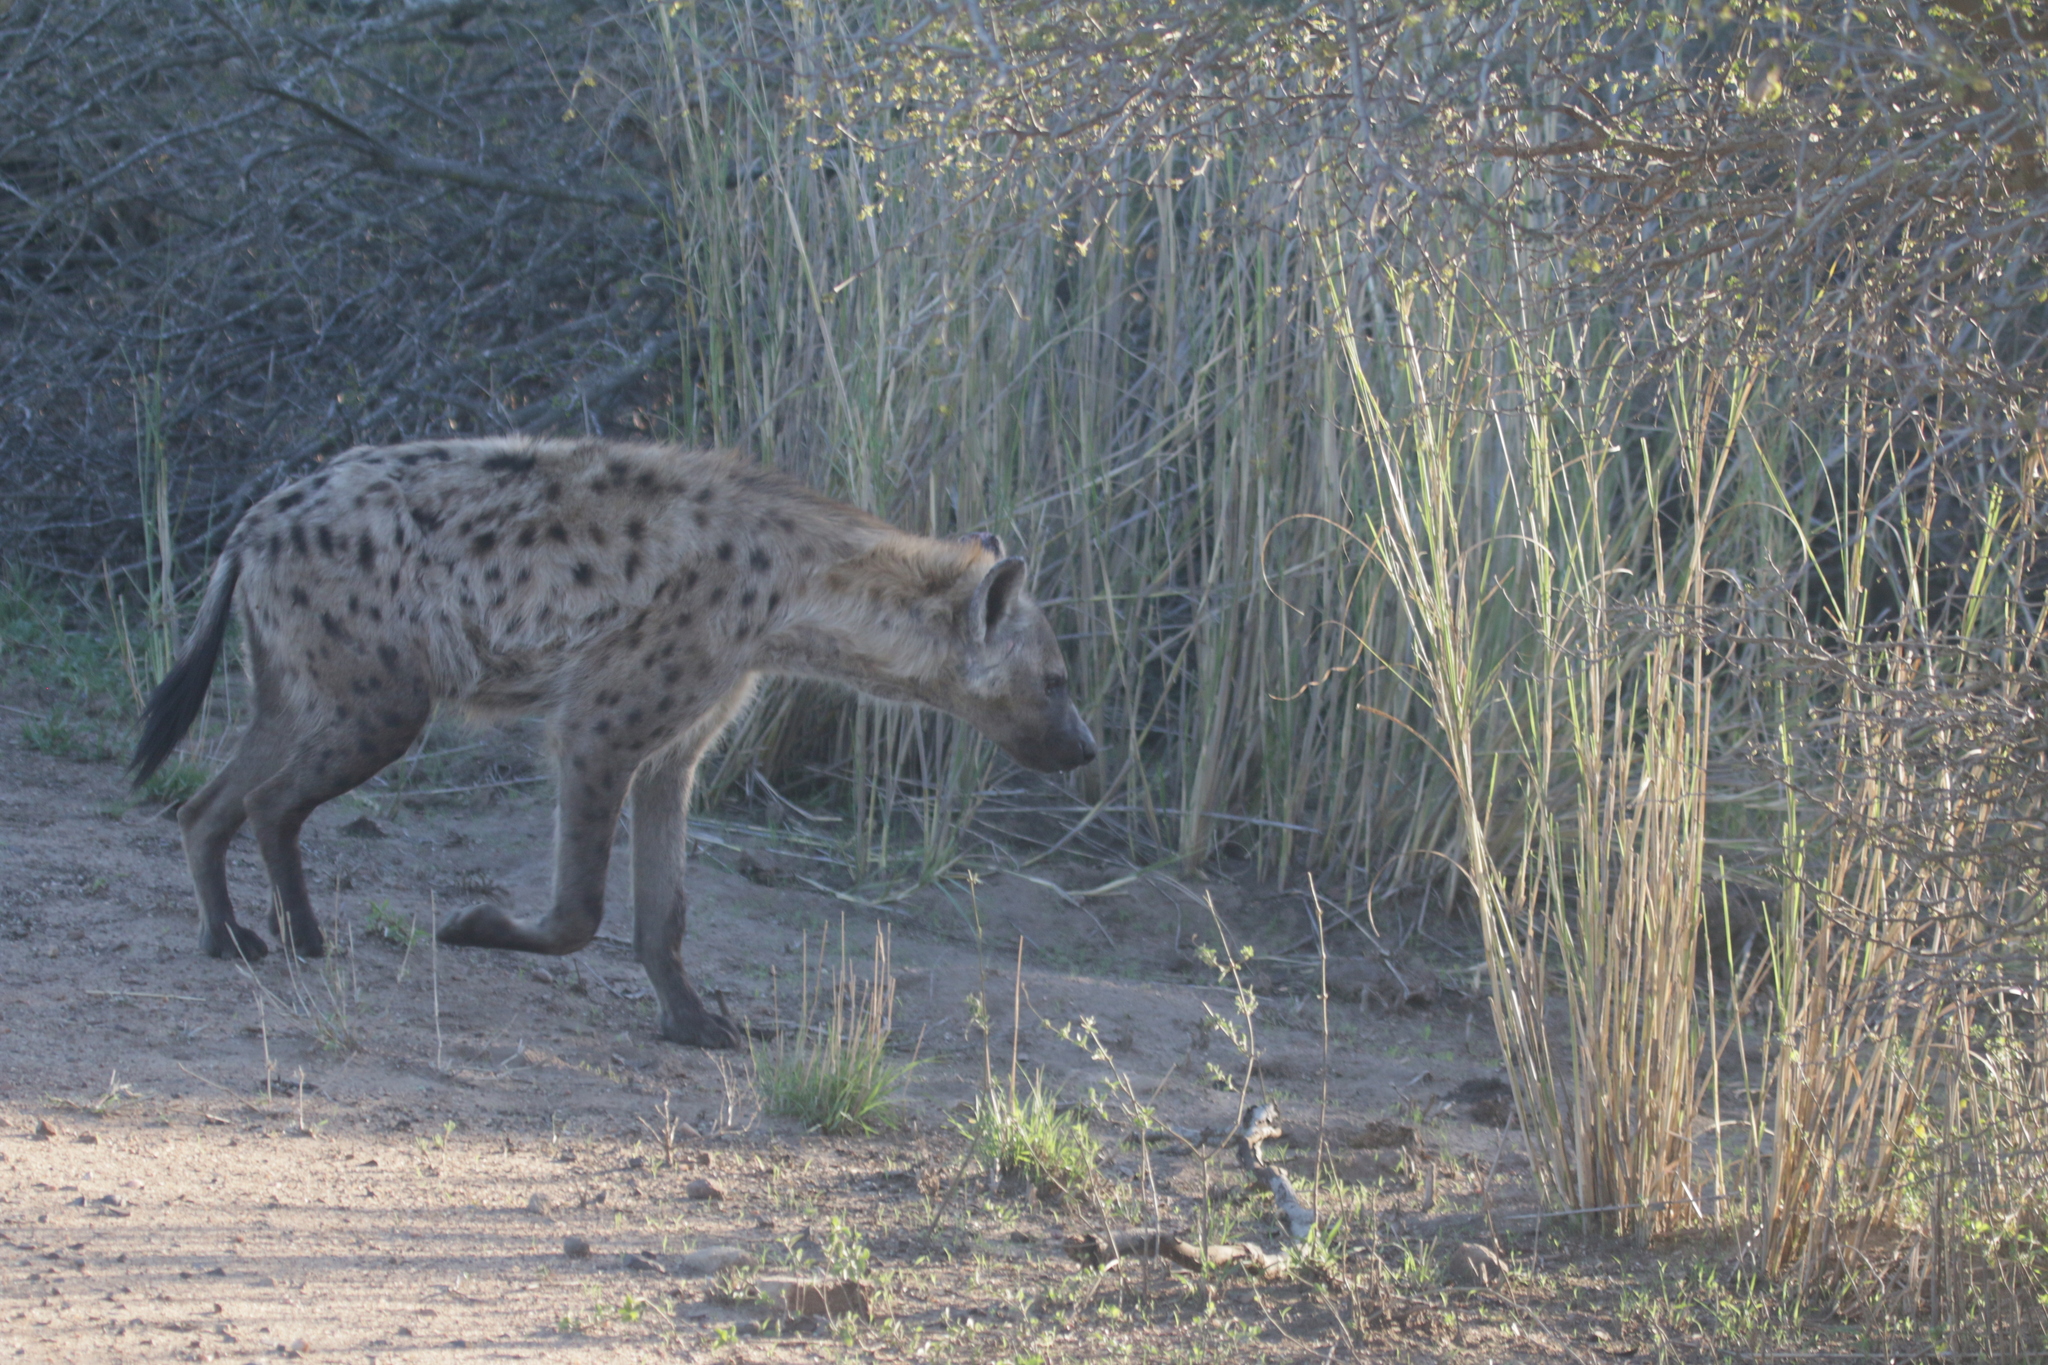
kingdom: Animalia
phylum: Chordata
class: Mammalia
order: Carnivora
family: Hyaenidae
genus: Crocuta
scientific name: Crocuta crocuta
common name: Spotted hyaena
